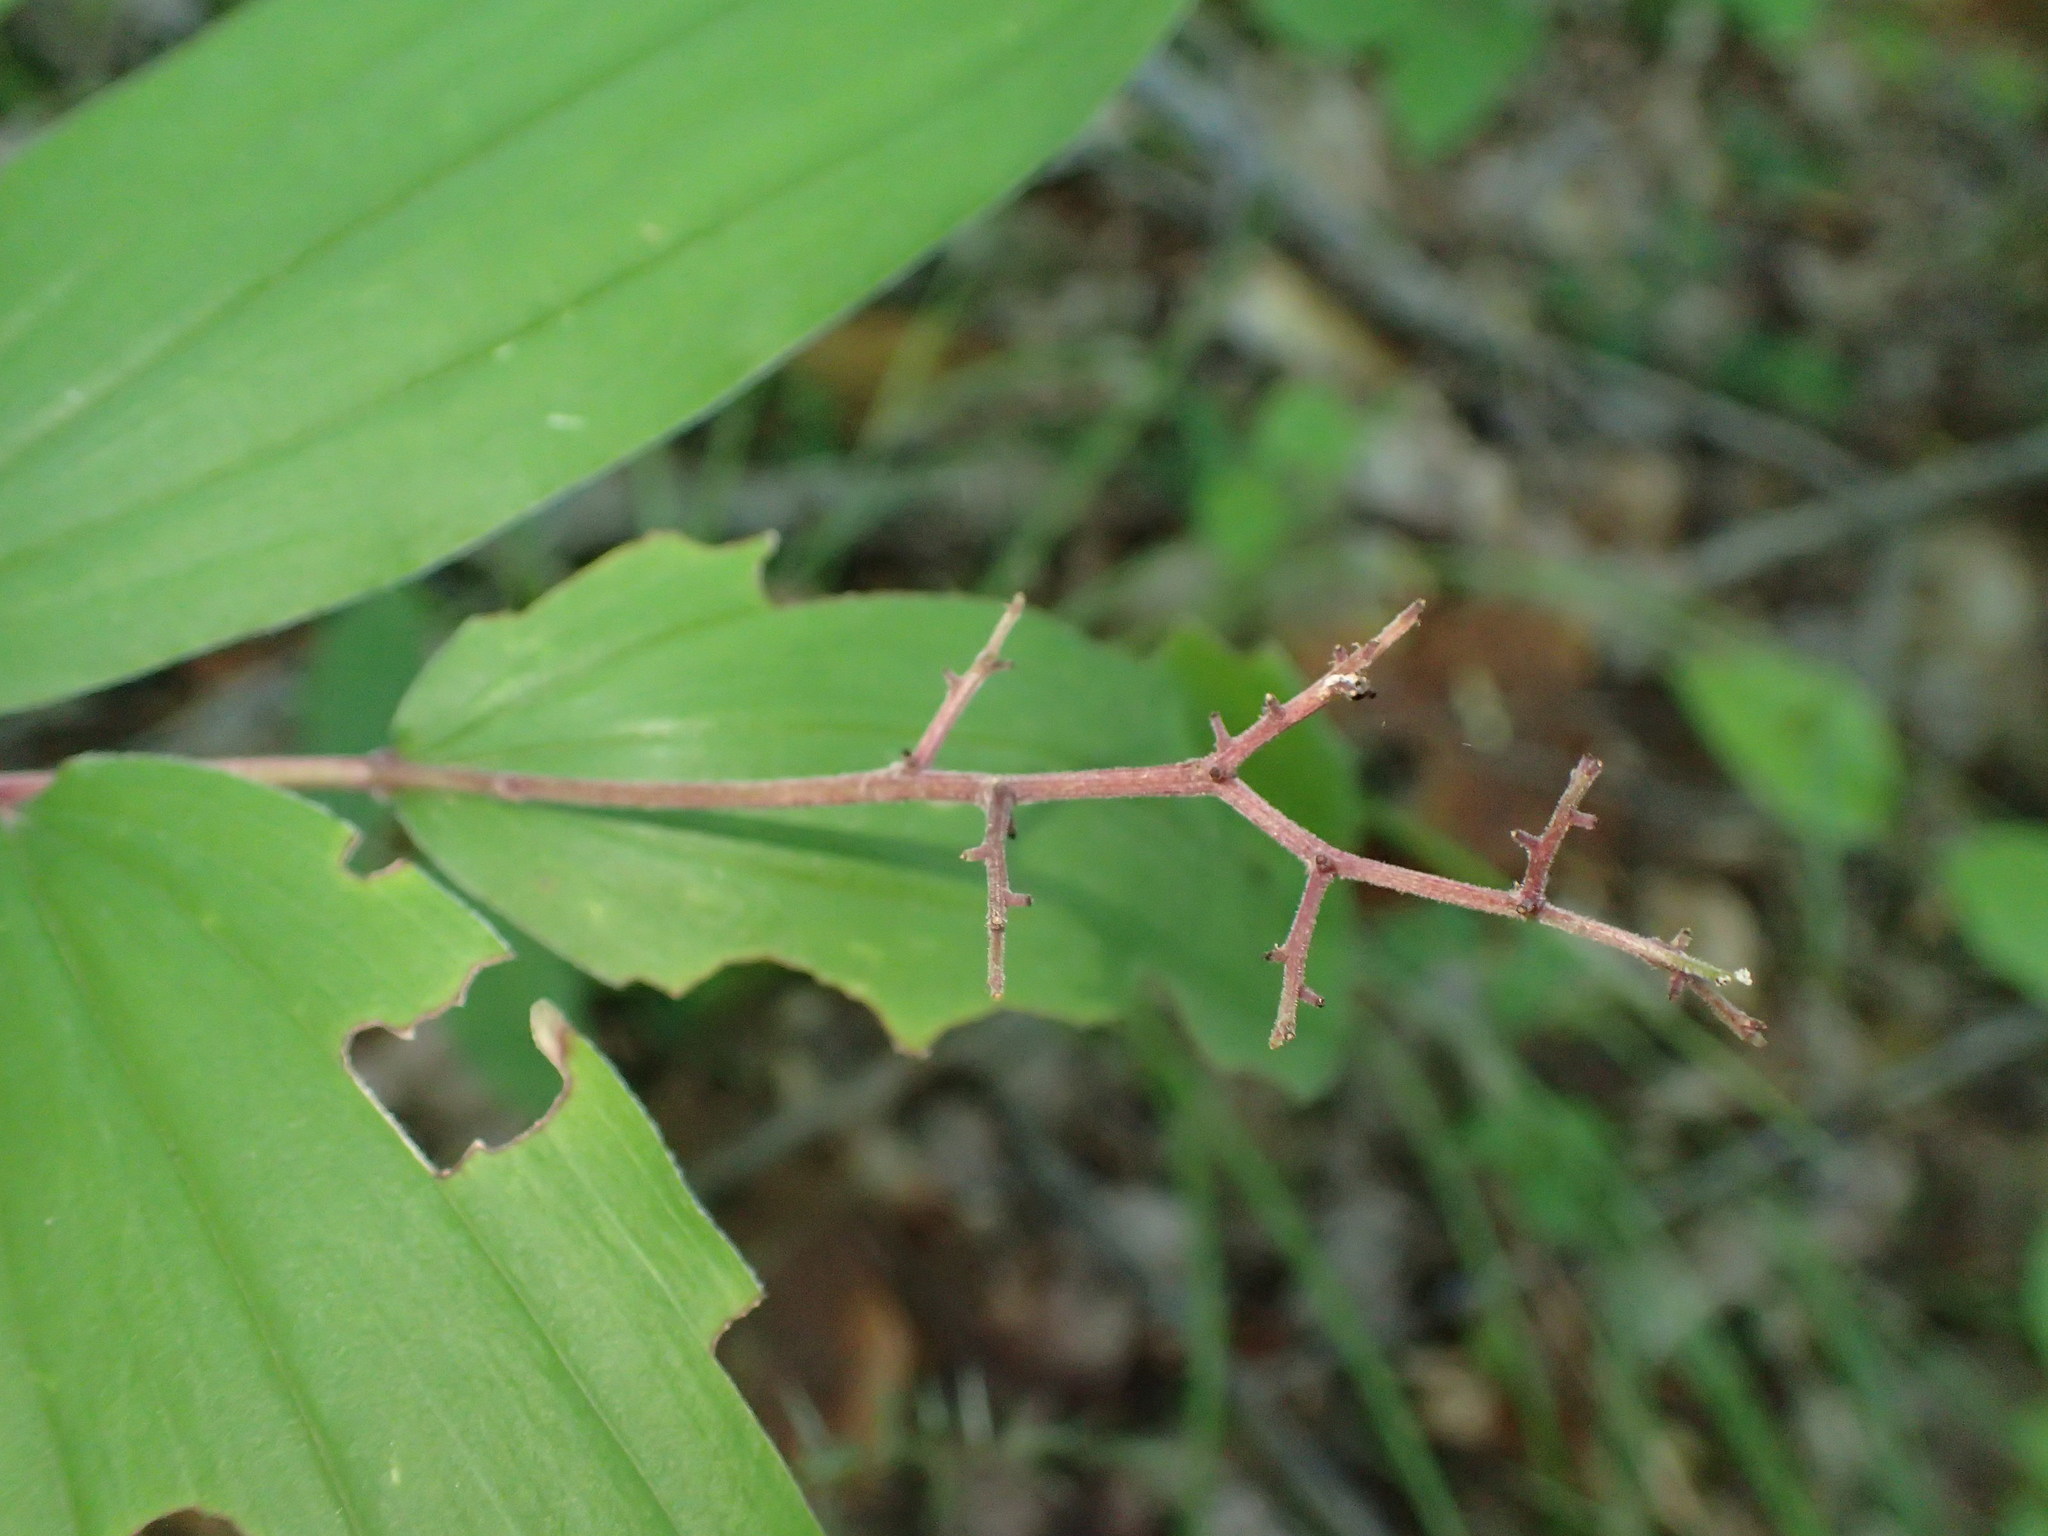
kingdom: Plantae
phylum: Tracheophyta
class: Liliopsida
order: Asparagales
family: Asparagaceae
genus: Maianthemum
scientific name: Maianthemum racemosum
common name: False spikenard
